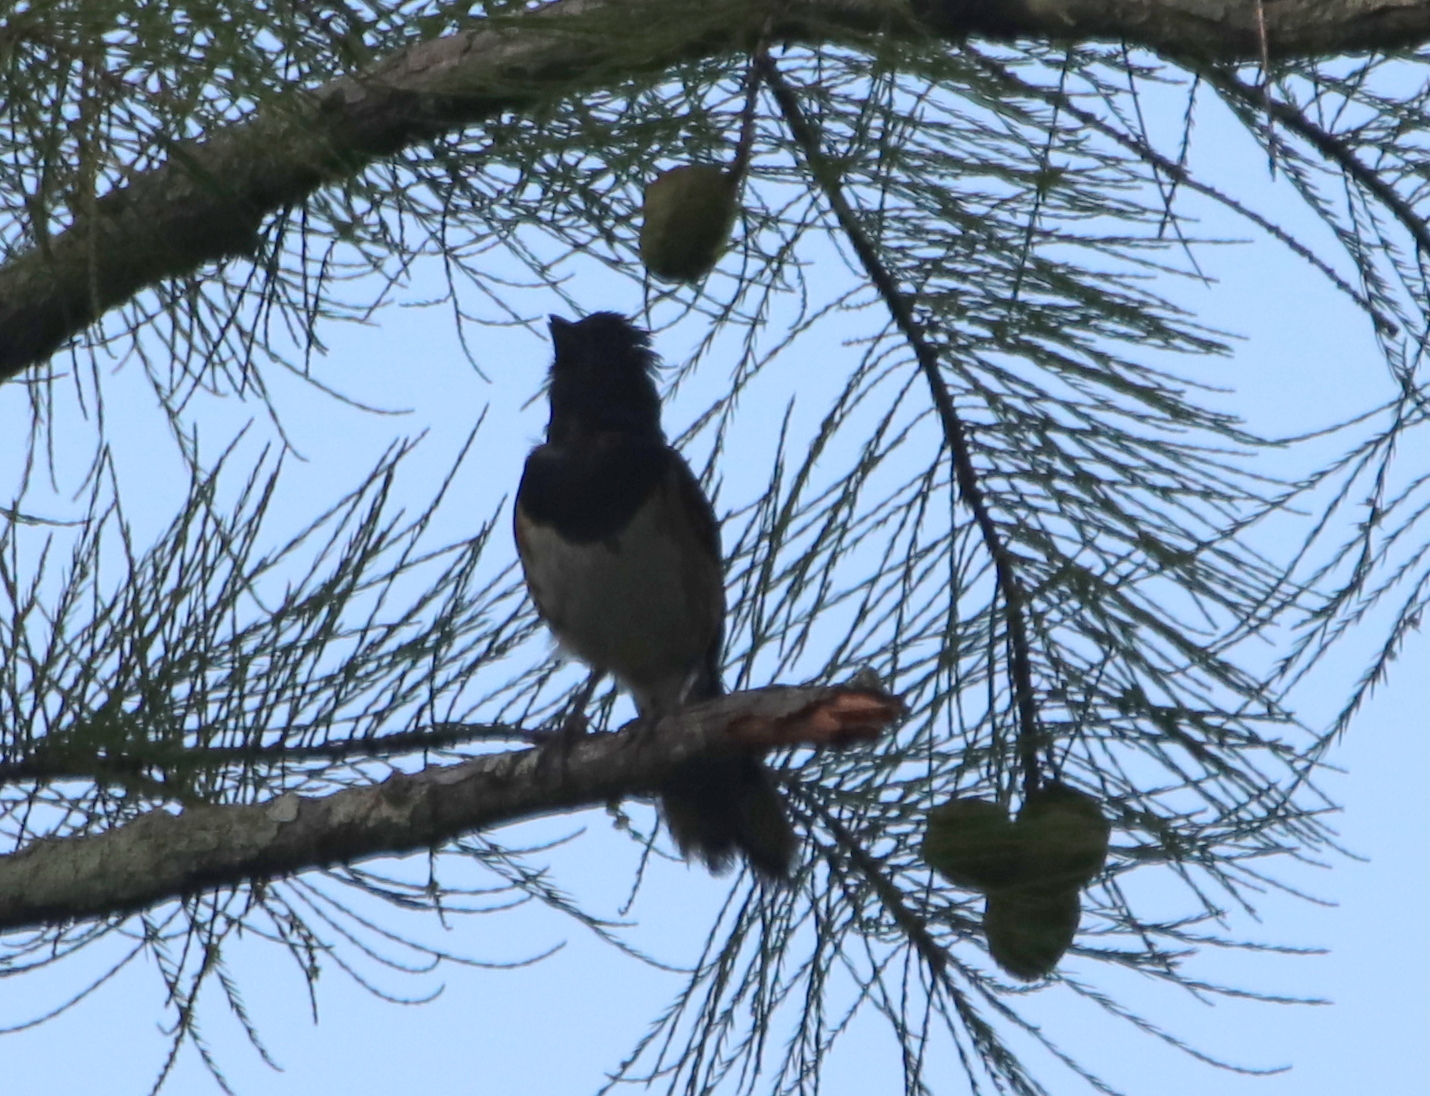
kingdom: Animalia
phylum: Chordata
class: Aves
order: Passeriformes
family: Passerellidae
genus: Pipilo
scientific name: Pipilo erythrophthalmus
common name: Eastern towhee
